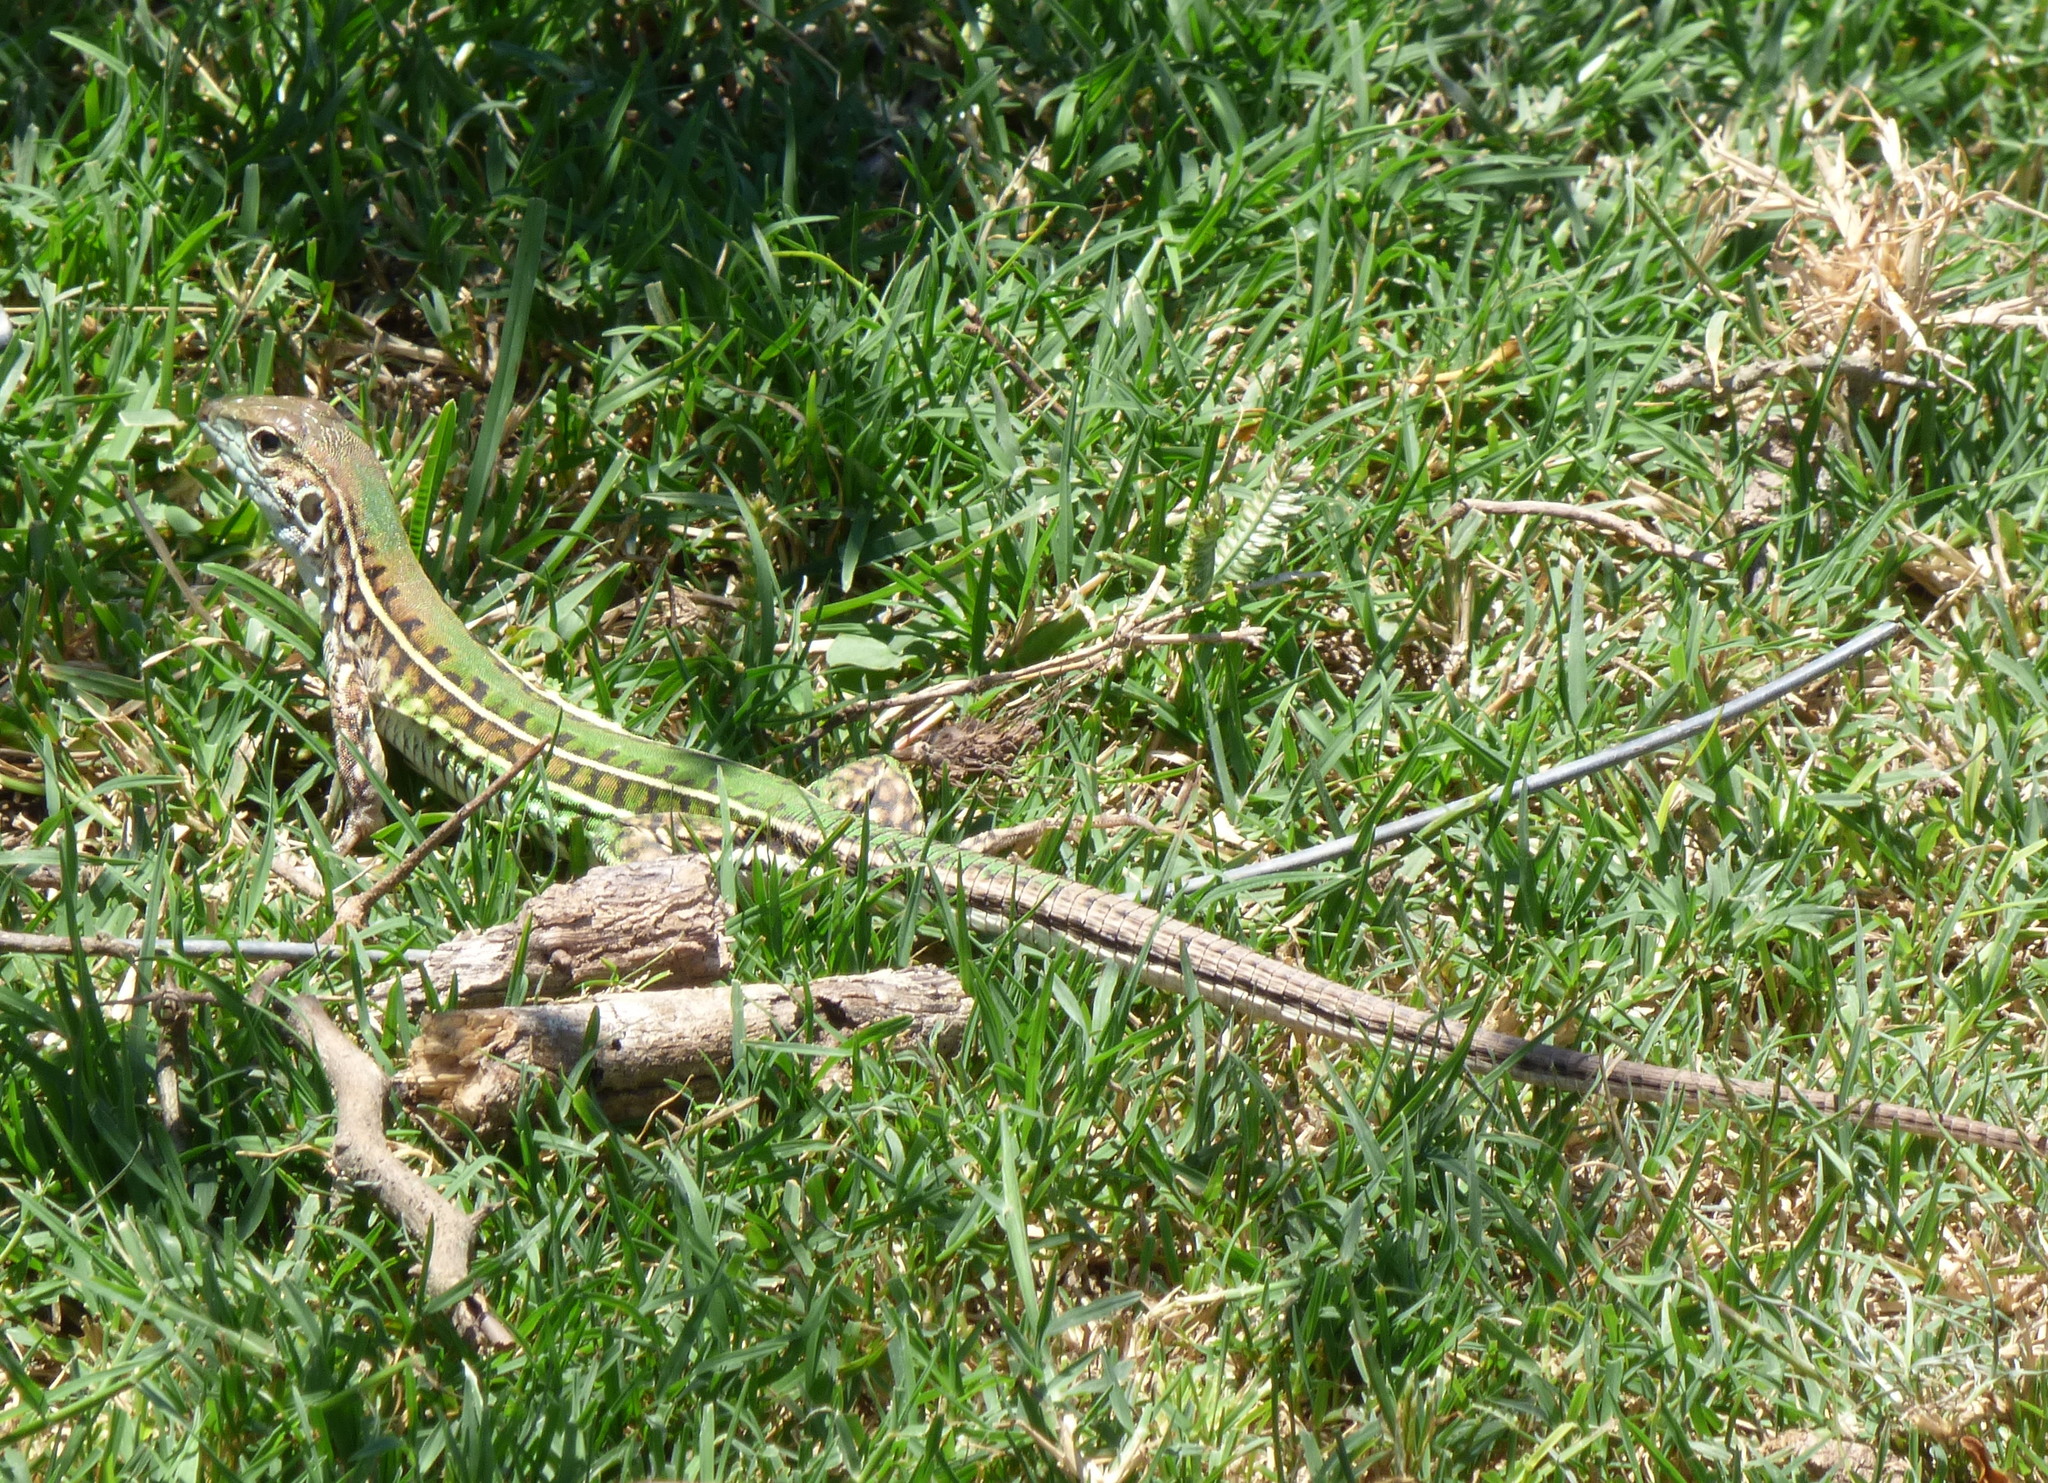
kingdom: Animalia
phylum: Chordata
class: Squamata
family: Teiidae
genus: Teius
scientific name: Teius suquiensis
